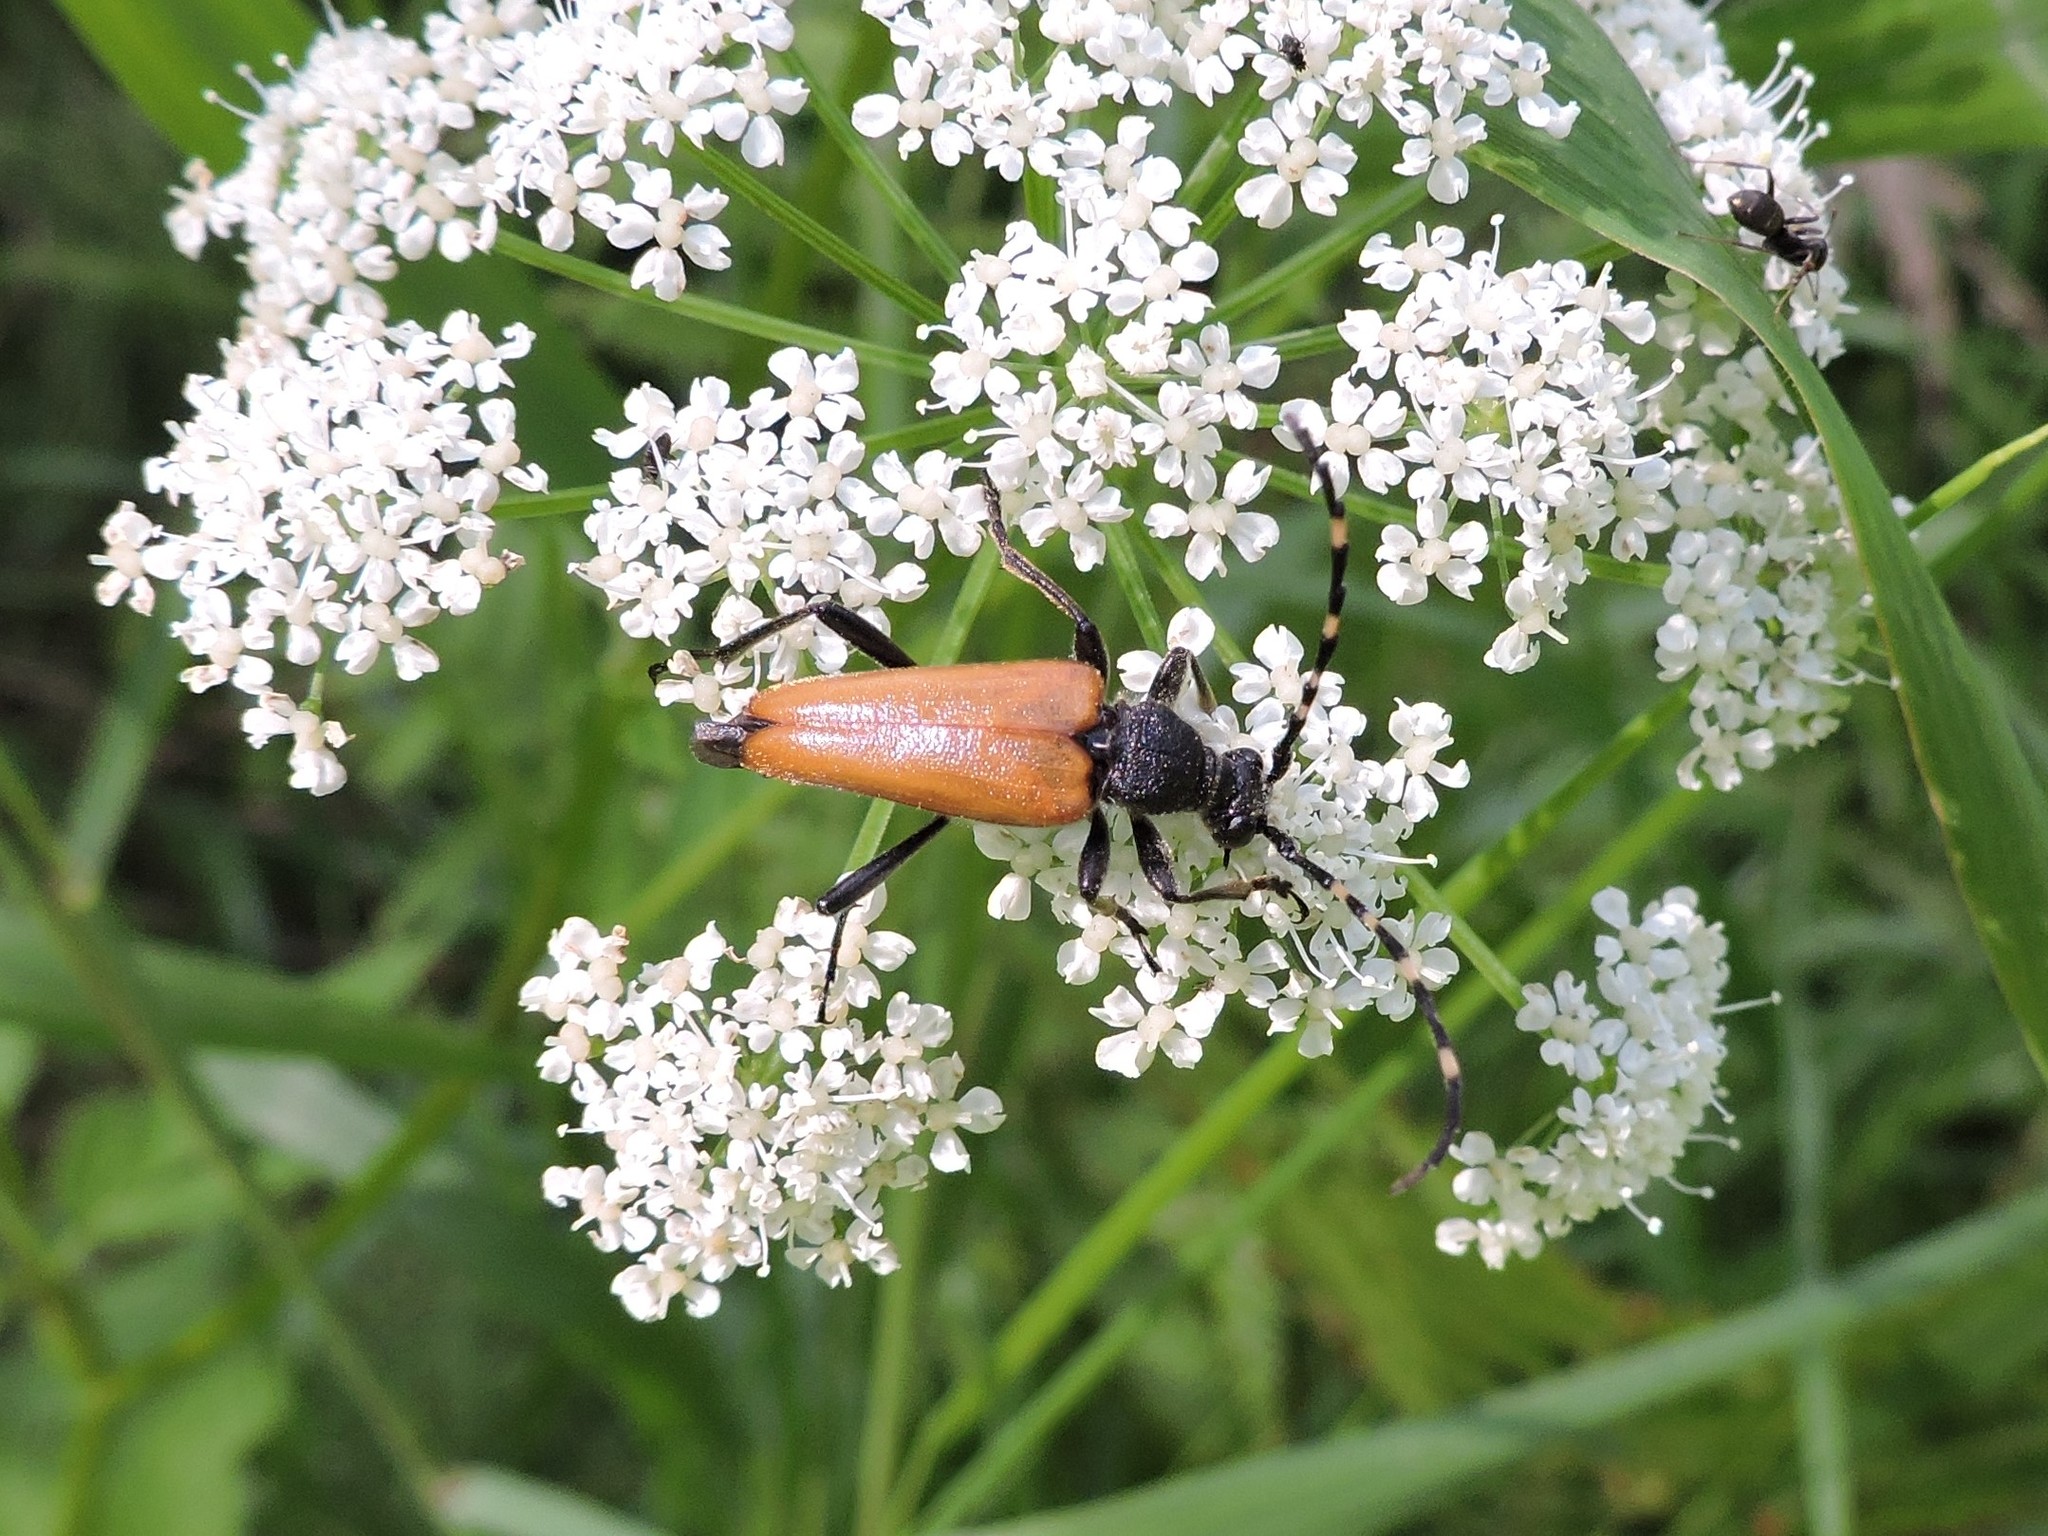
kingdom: Animalia
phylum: Arthropoda
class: Insecta
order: Coleoptera
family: Cerambycidae
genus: Stictoleptura
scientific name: Stictoleptura variicornis
